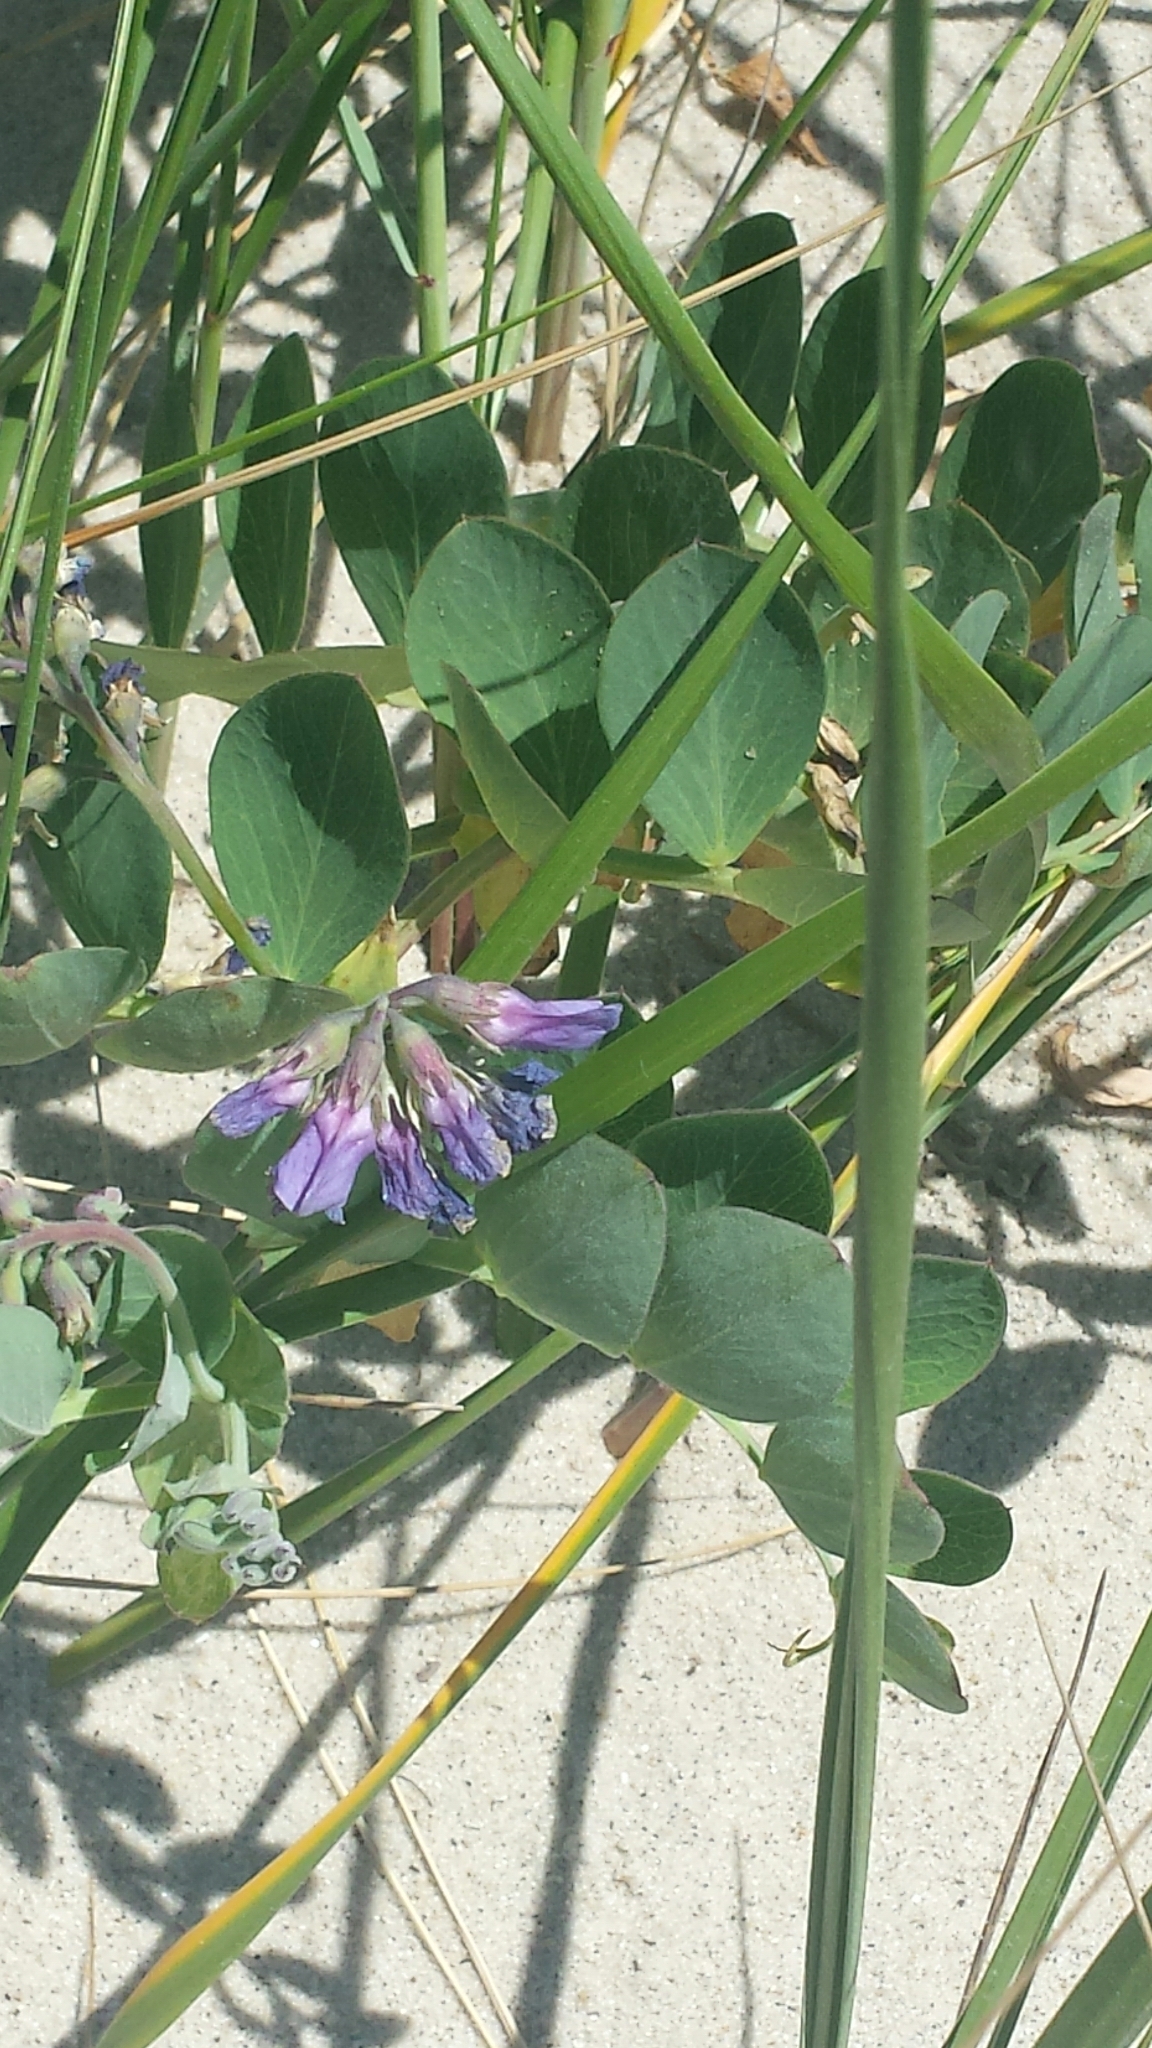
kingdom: Plantae
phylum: Tracheophyta
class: Magnoliopsida
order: Fabales
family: Fabaceae
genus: Lathyrus
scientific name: Lathyrus japonicus
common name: Sea pea
